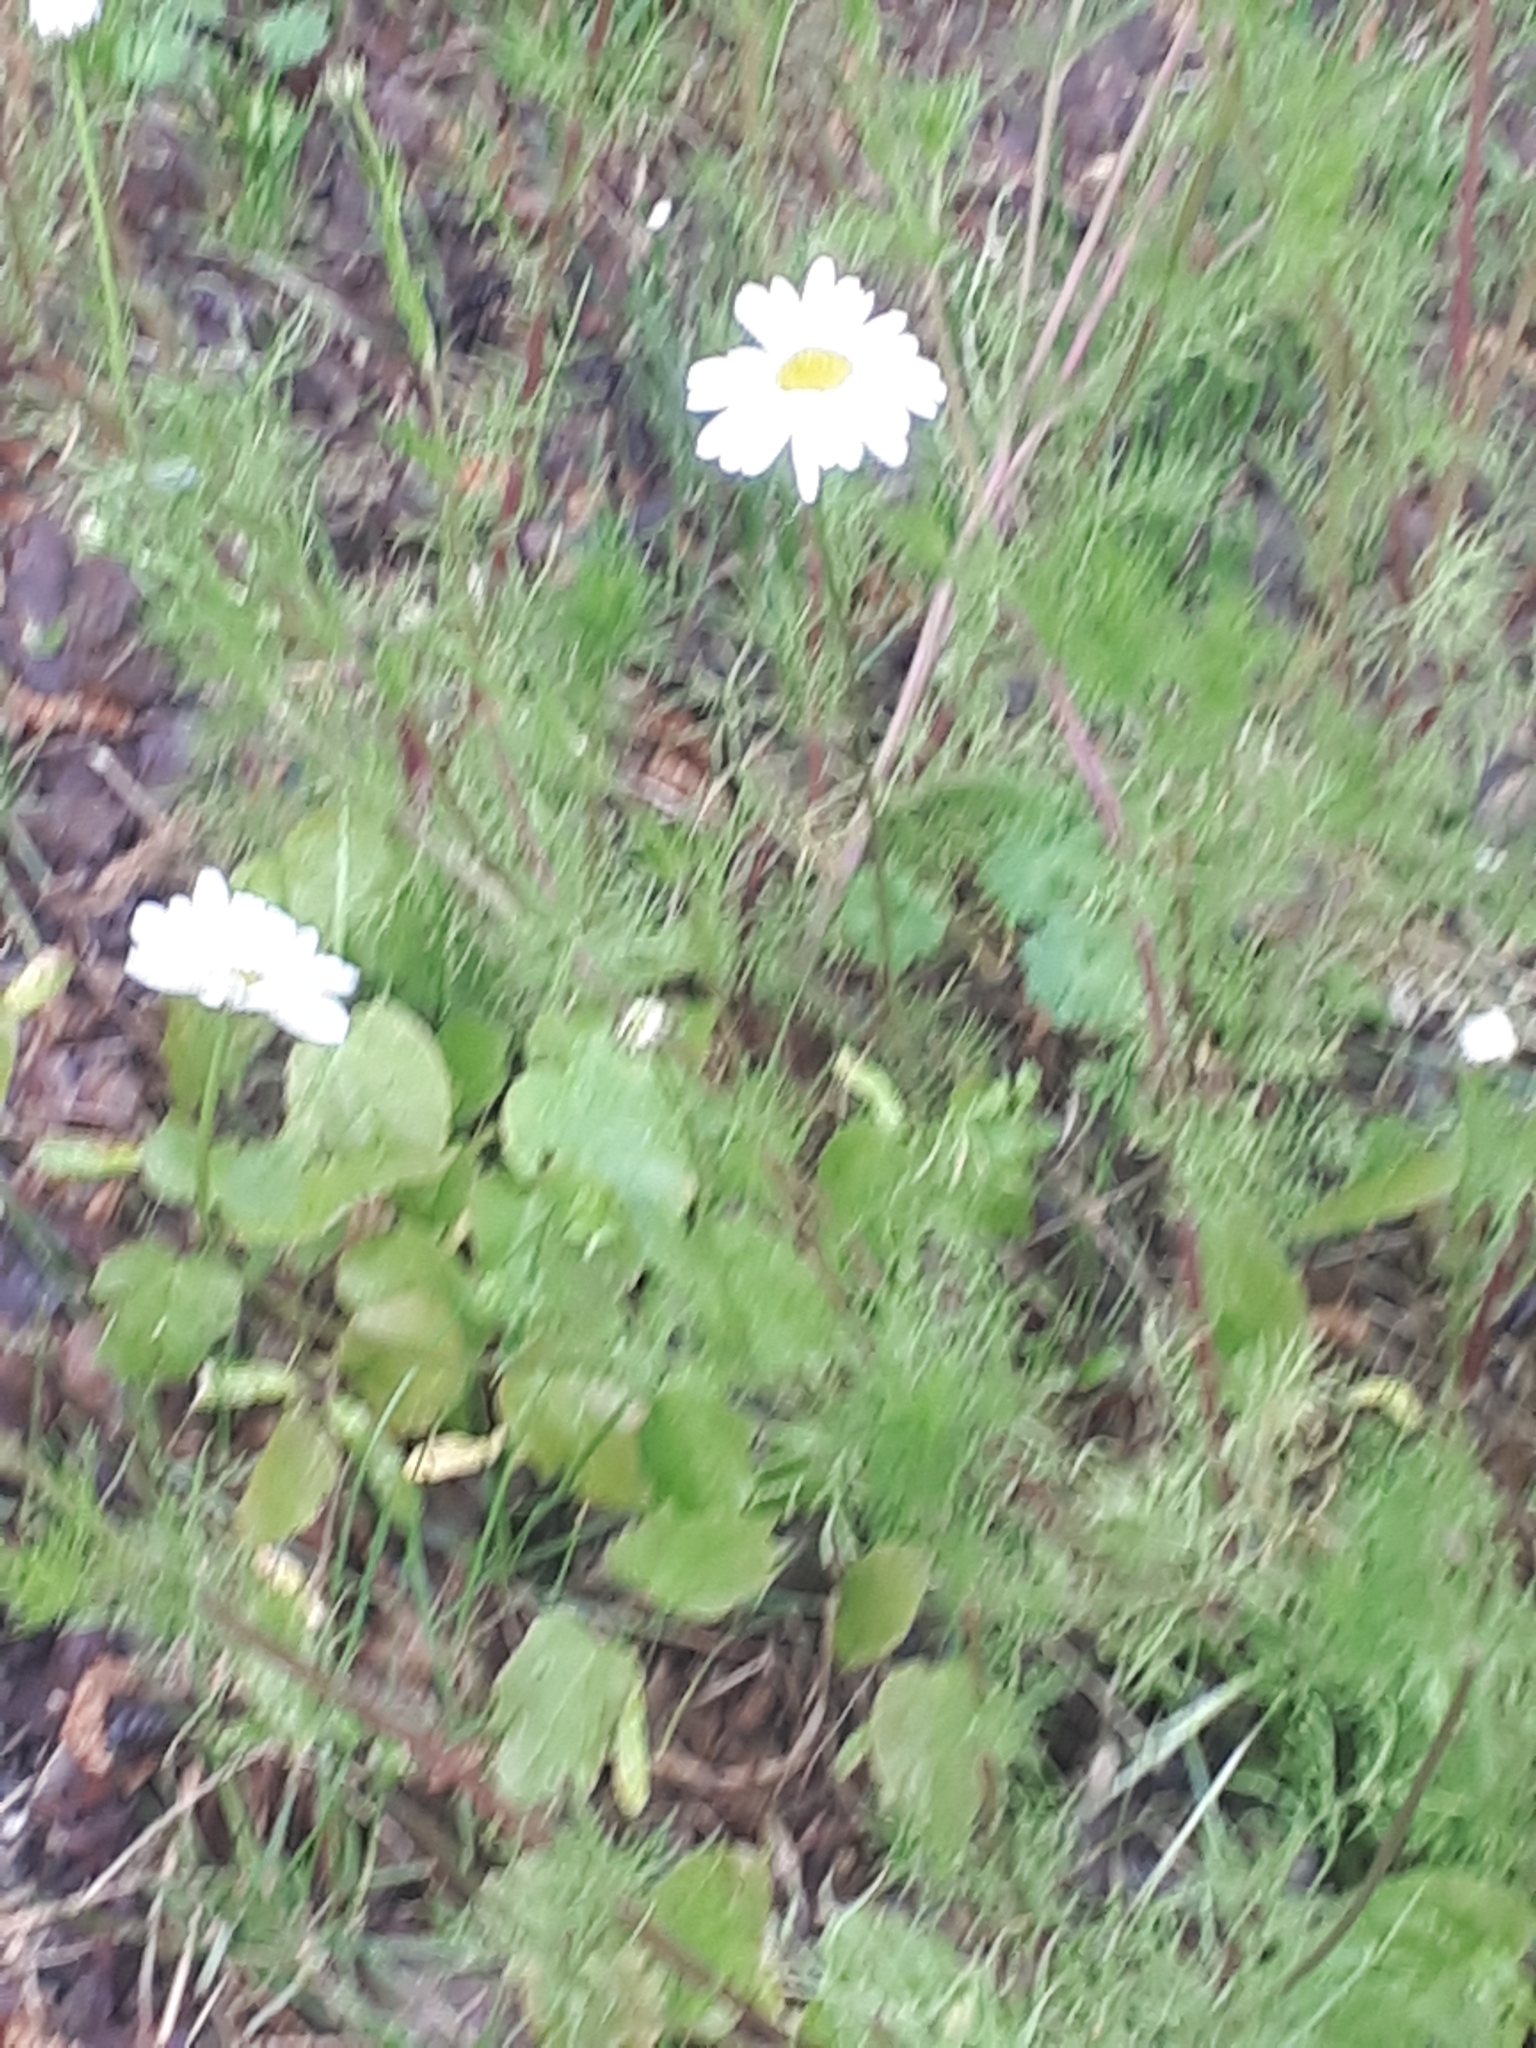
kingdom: Plantae
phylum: Tracheophyta
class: Magnoliopsida
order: Asterales
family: Asteraceae
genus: Tripleurospermum
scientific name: Tripleurospermum inodorum
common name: Scentless mayweed
